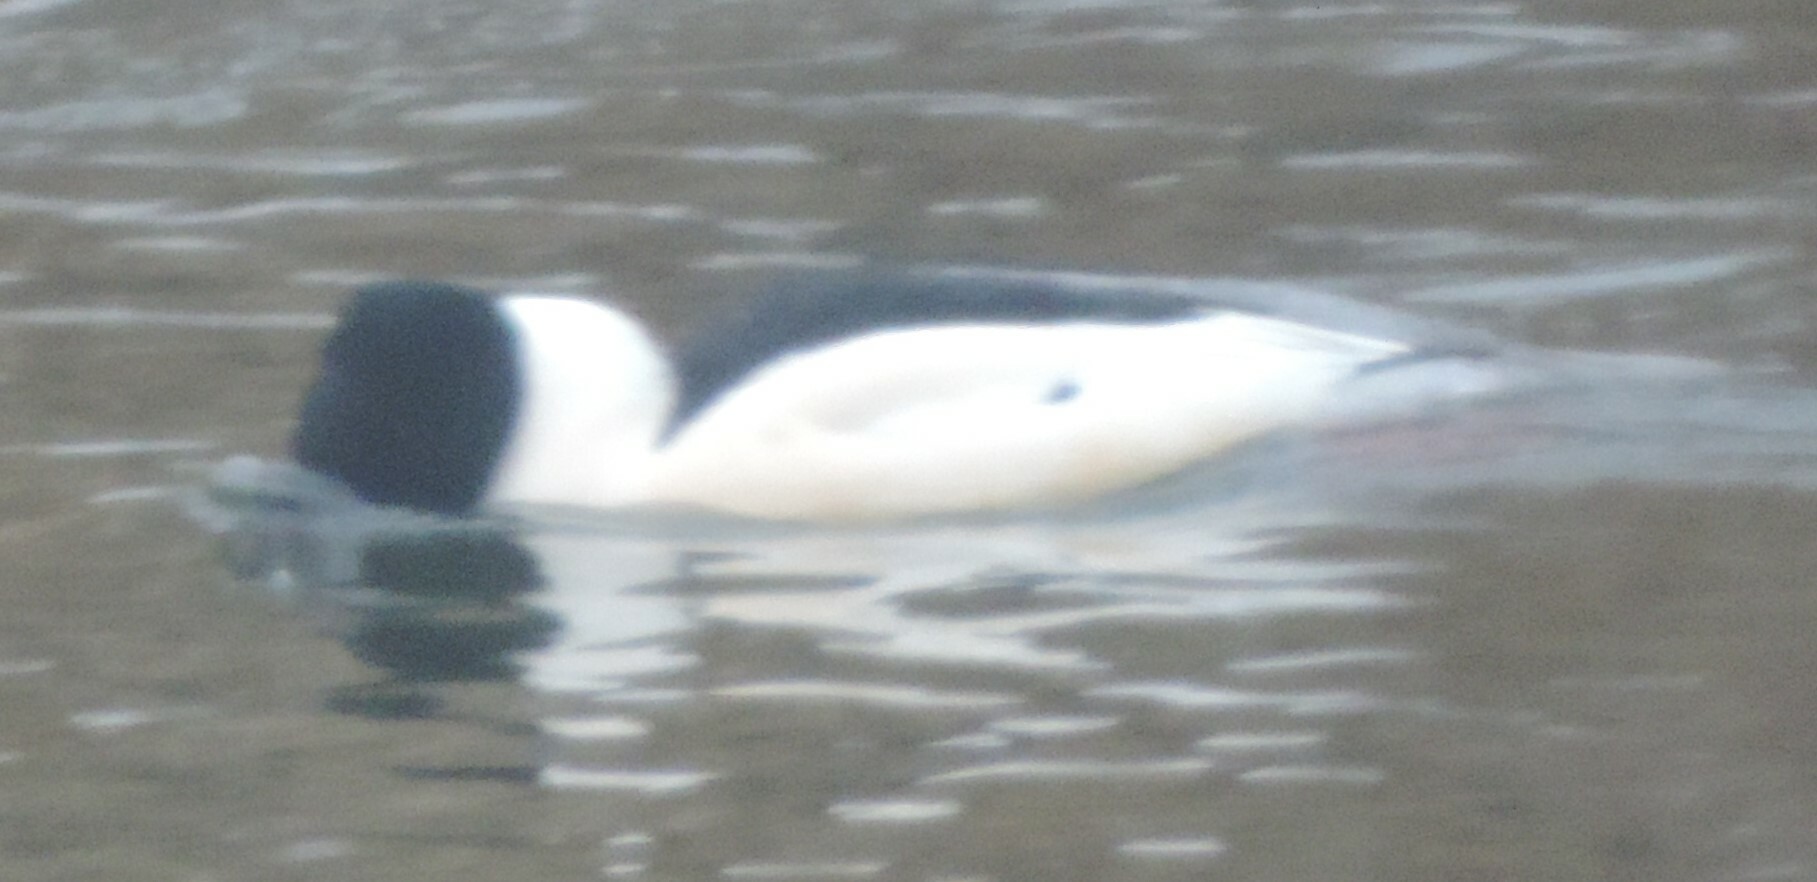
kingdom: Animalia
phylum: Chordata
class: Aves
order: Anseriformes
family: Anatidae
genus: Mergus
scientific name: Mergus merganser
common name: Common merganser
